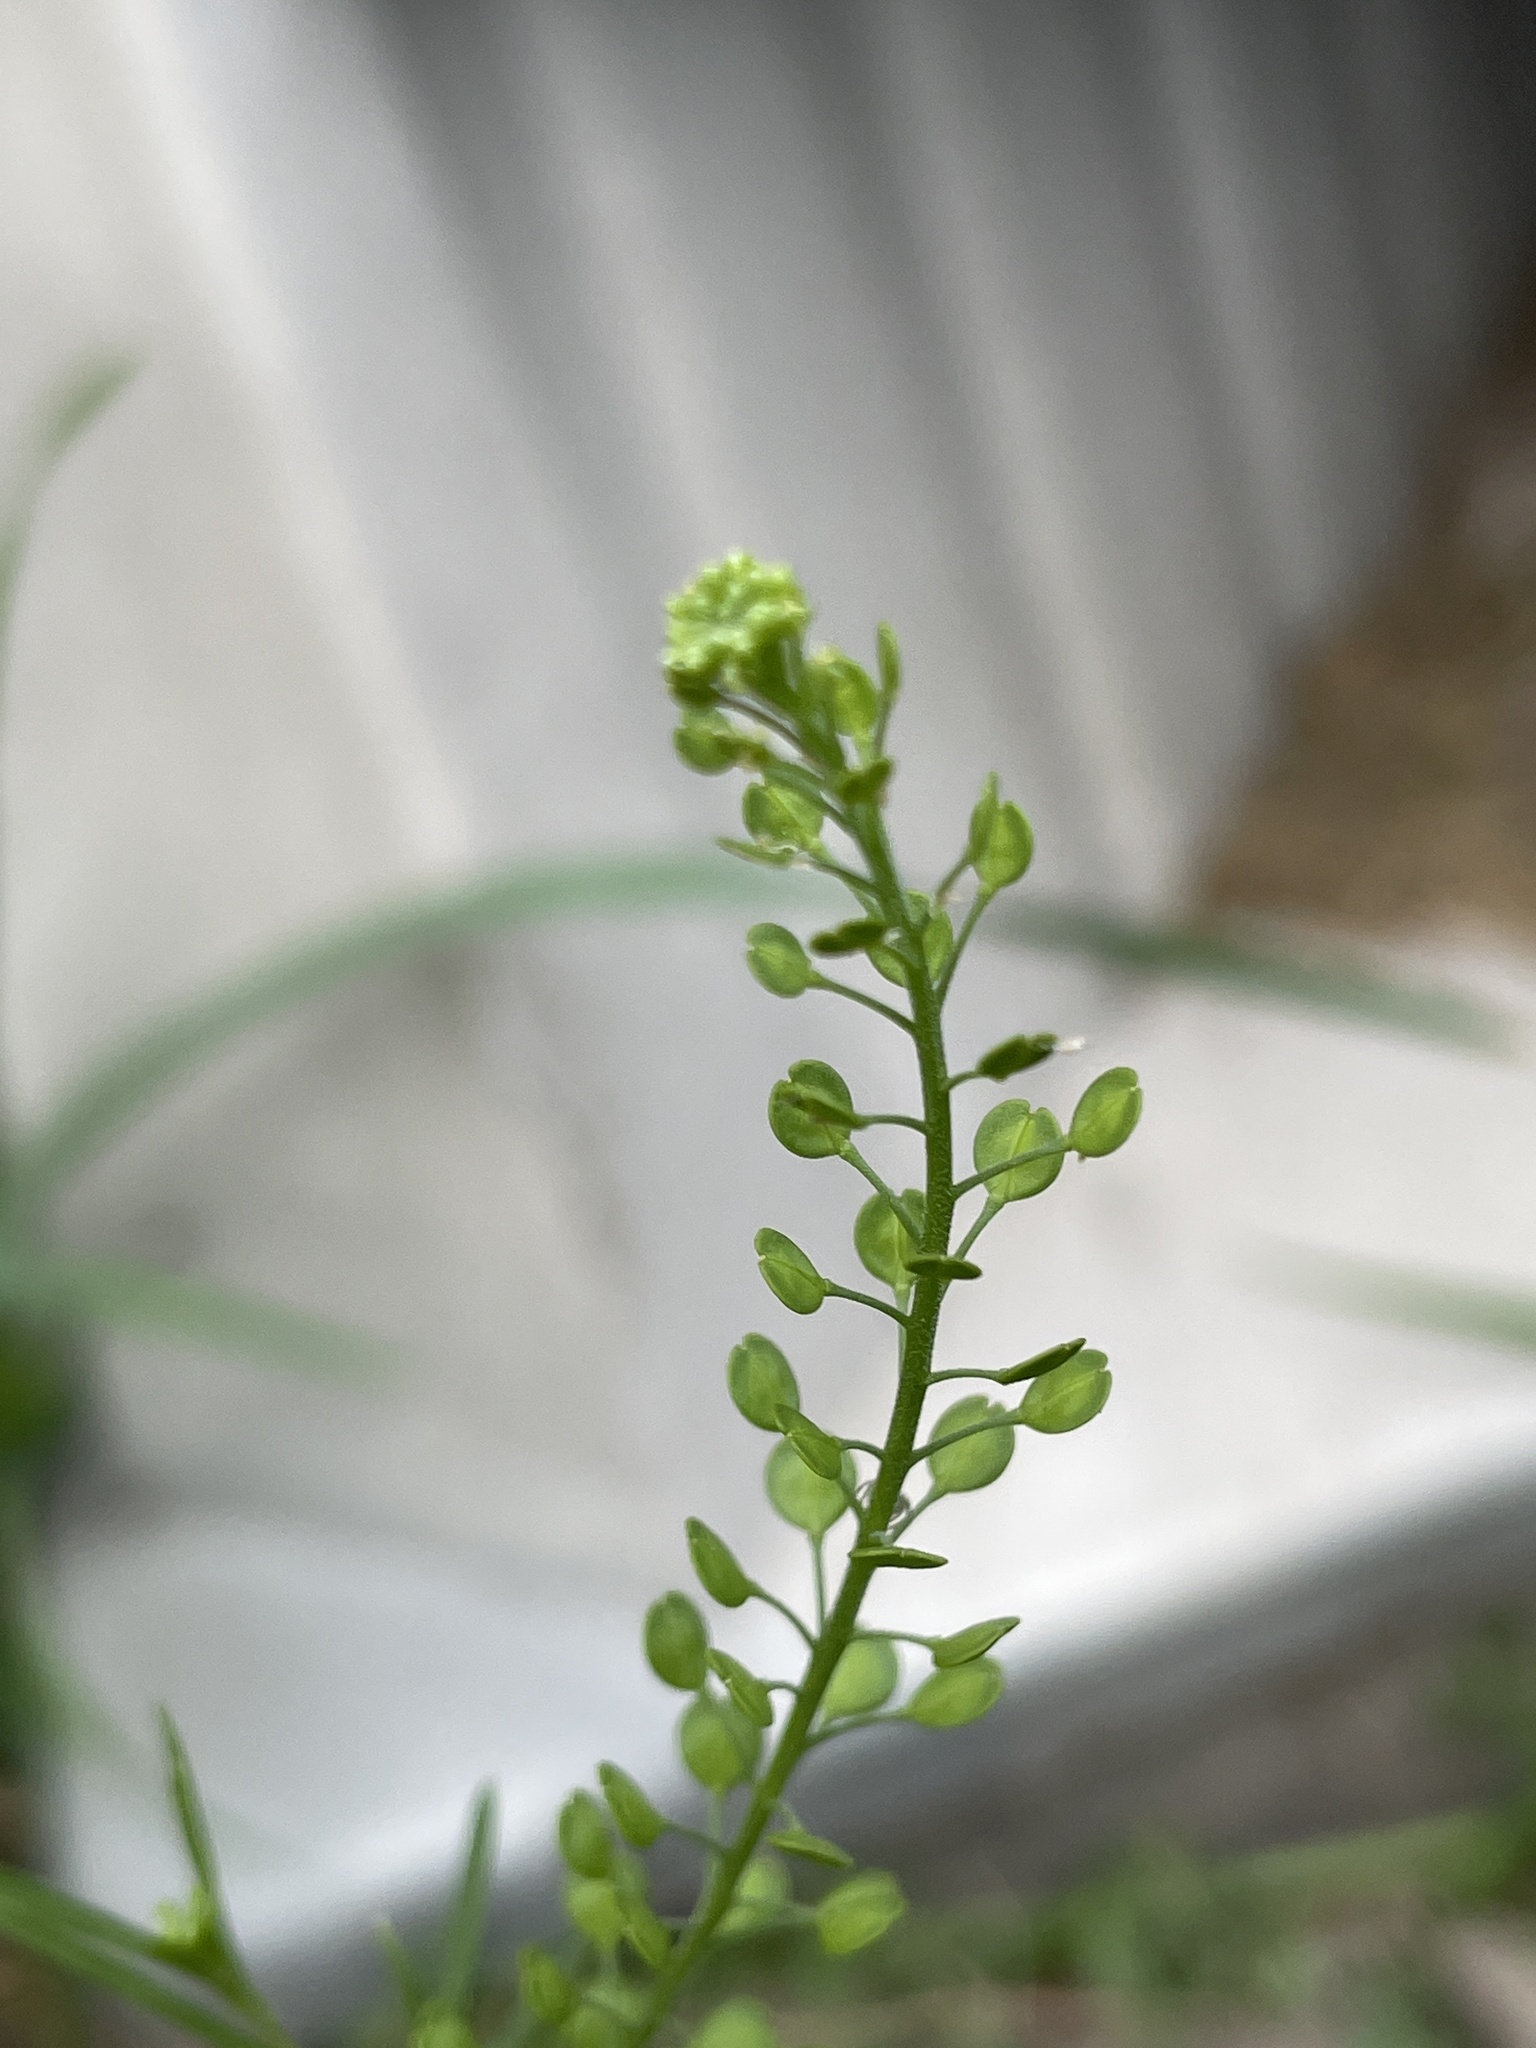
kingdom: Plantae
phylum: Tracheophyta
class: Magnoliopsida
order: Brassicales
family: Brassicaceae
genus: Lepidium
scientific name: Lepidium virginicum
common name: Least pepperwort
